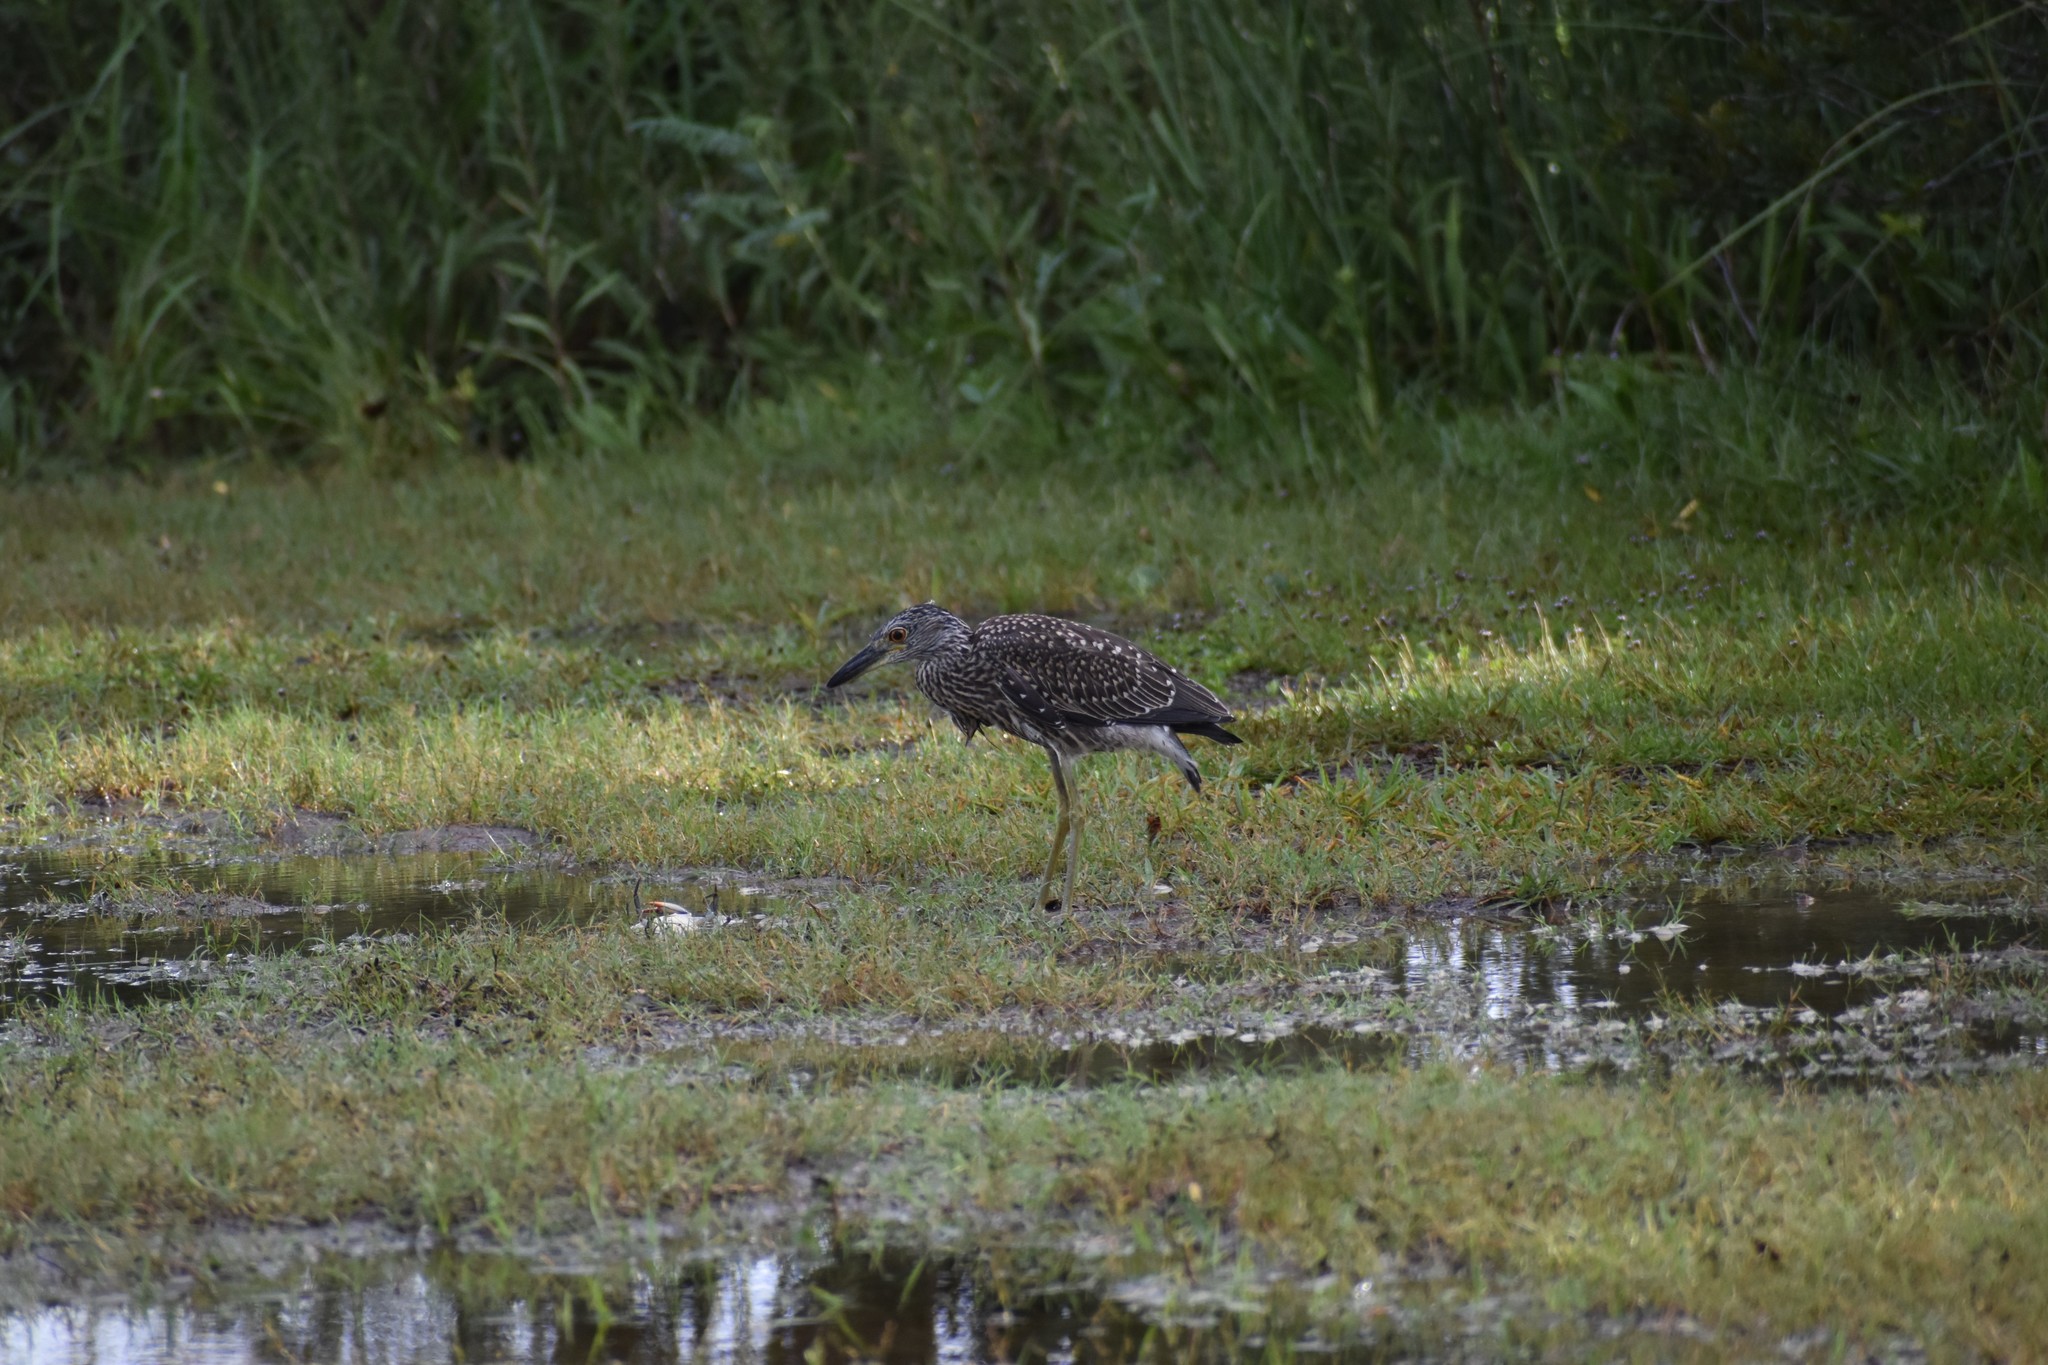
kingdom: Animalia
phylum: Chordata
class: Aves
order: Pelecaniformes
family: Ardeidae
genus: Nyctanassa
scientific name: Nyctanassa violacea
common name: Yellow-crowned night heron
